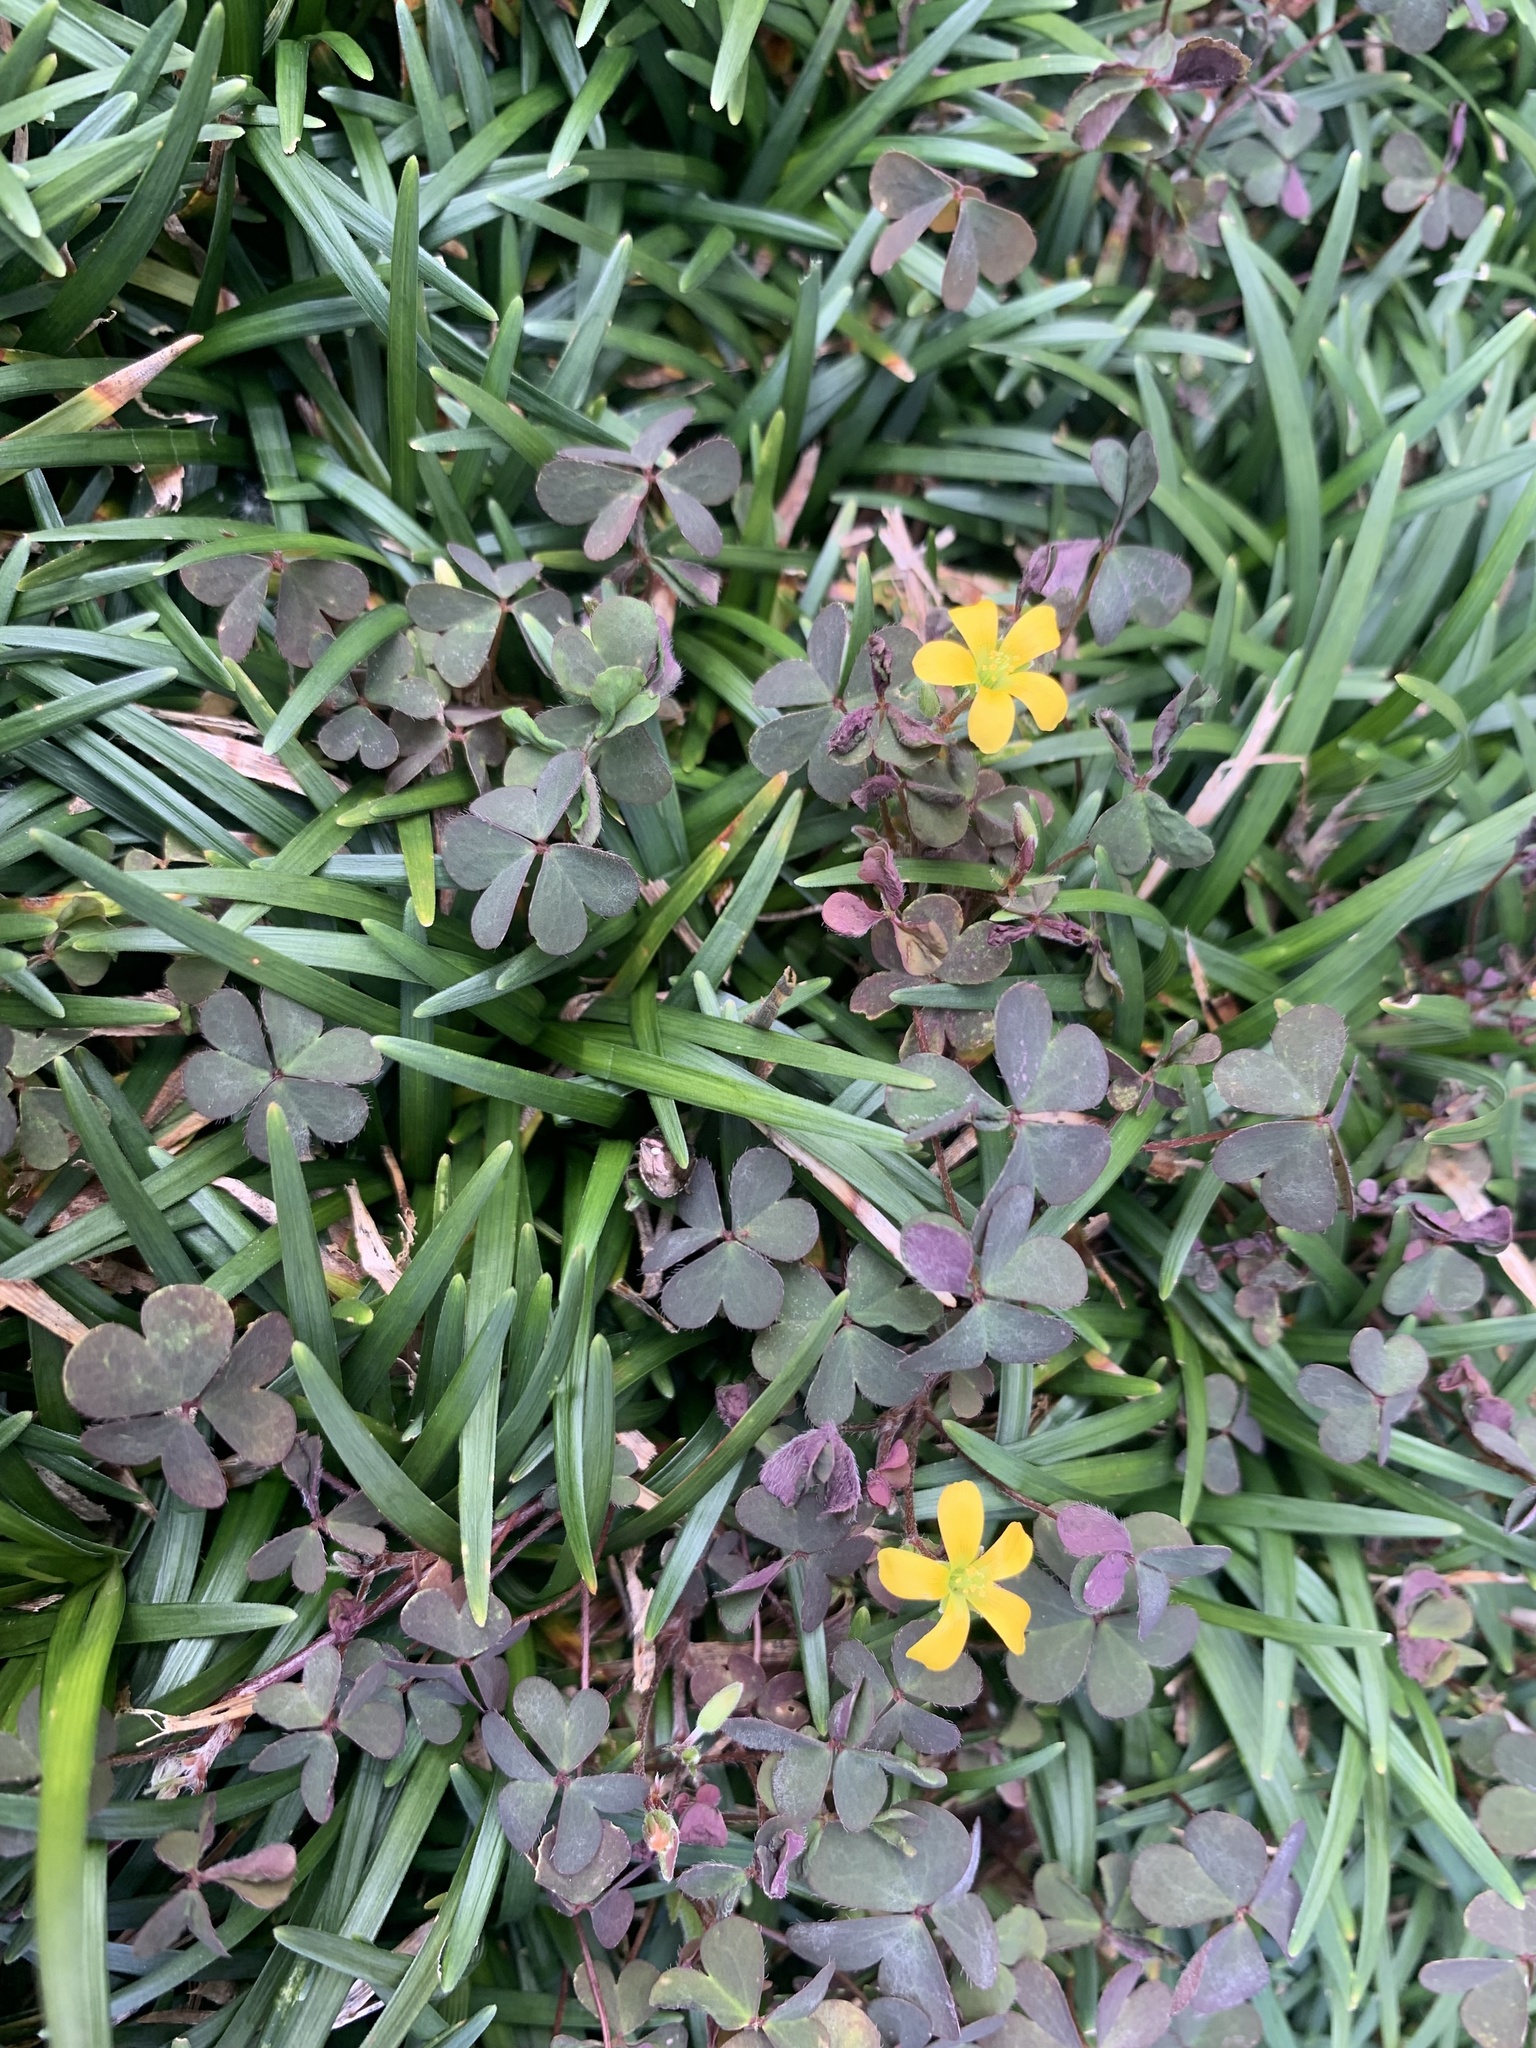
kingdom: Plantae
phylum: Tracheophyta
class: Magnoliopsida
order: Oxalidales
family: Oxalidaceae
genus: Oxalis
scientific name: Oxalis corniculata
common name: Procumbent yellow-sorrel
